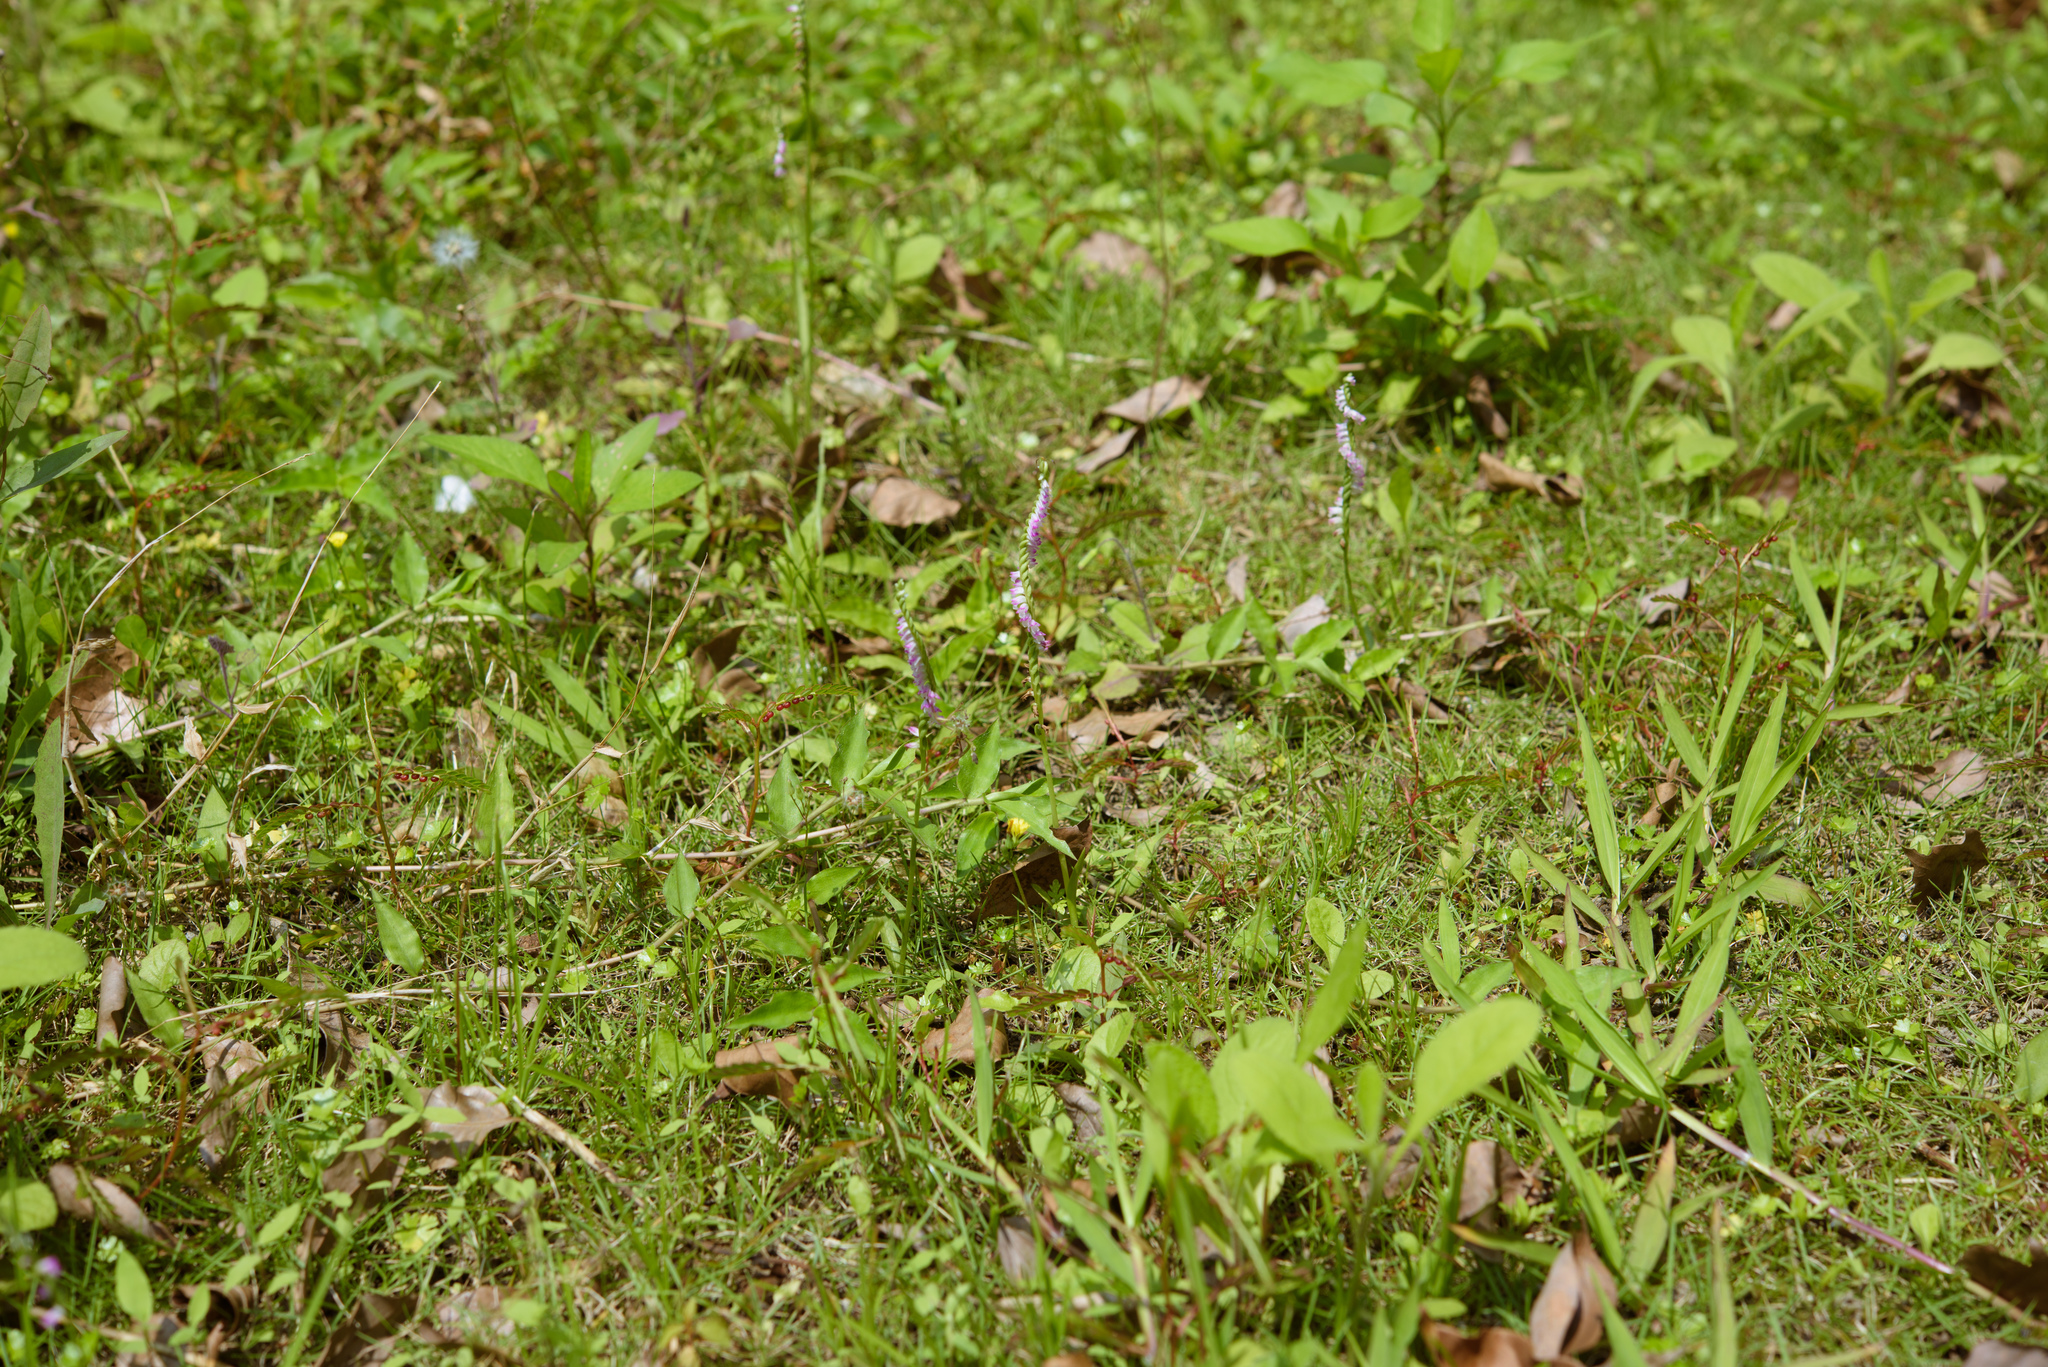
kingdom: Plantae
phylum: Tracheophyta
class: Liliopsida
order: Asparagales
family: Orchidaceae
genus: Spiranthes
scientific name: Spiranthes sinensis
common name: Chinese spiranthes
